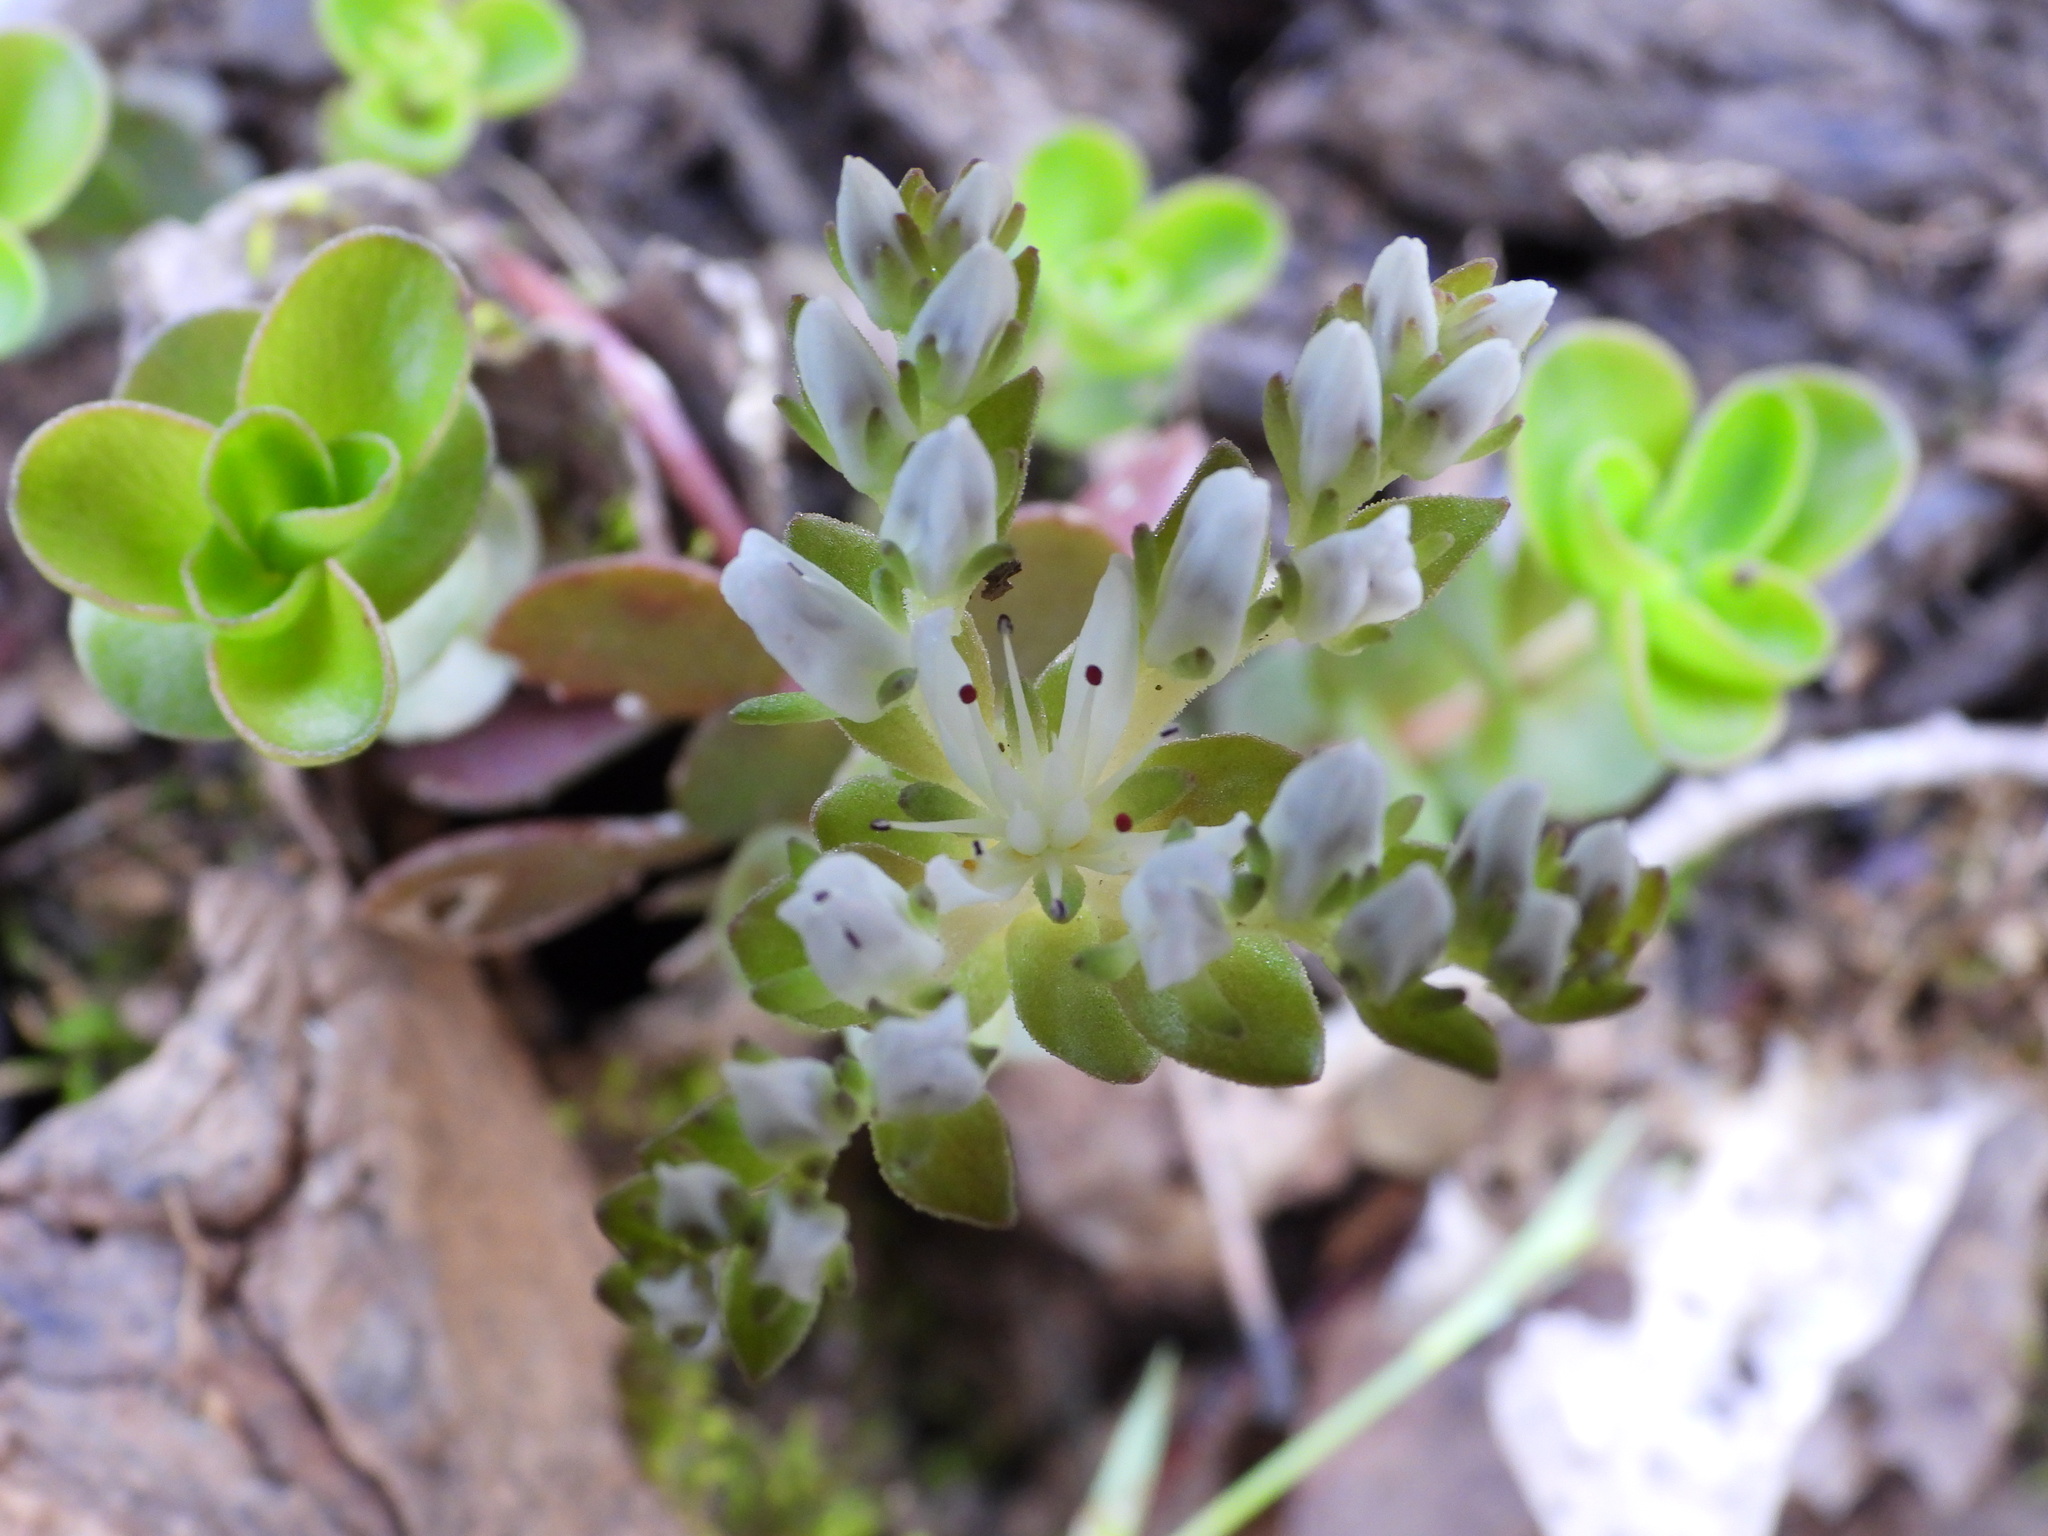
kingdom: Plantae
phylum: Tracheophyta
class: Magnoliopsida
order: Saxifragales
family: Crassulaceae
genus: Sedum
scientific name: Sedum ternatum
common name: Wild stonecrop
